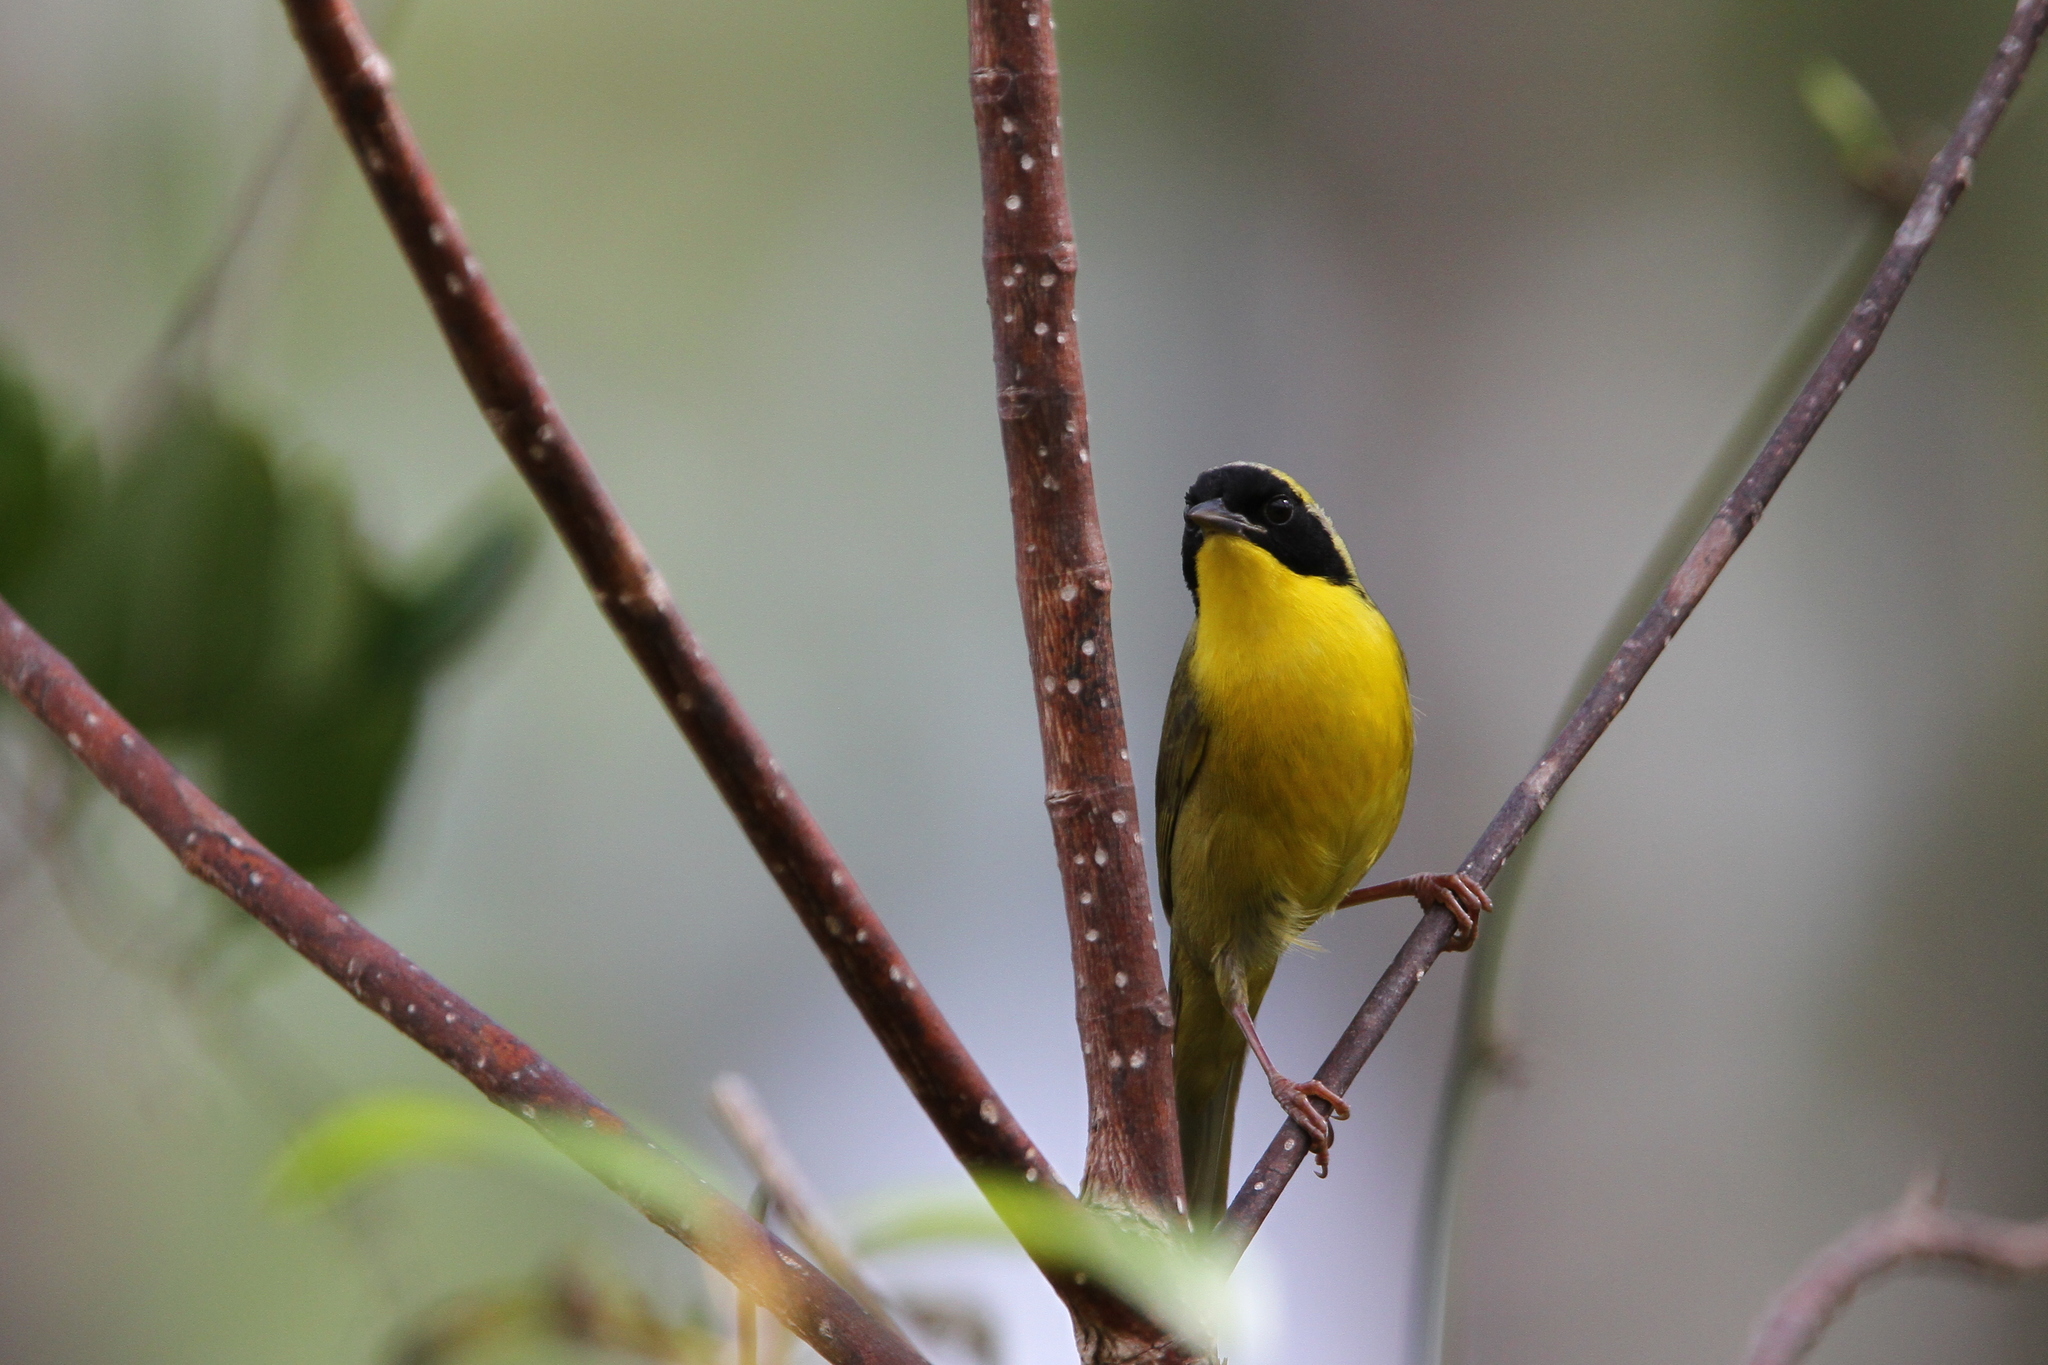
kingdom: Animalia
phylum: Chordata
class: Aves
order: Passeriformes
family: Parulidae
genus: Geothlypis
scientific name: Geothlypis rostrata
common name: Bahama yellowthroat
